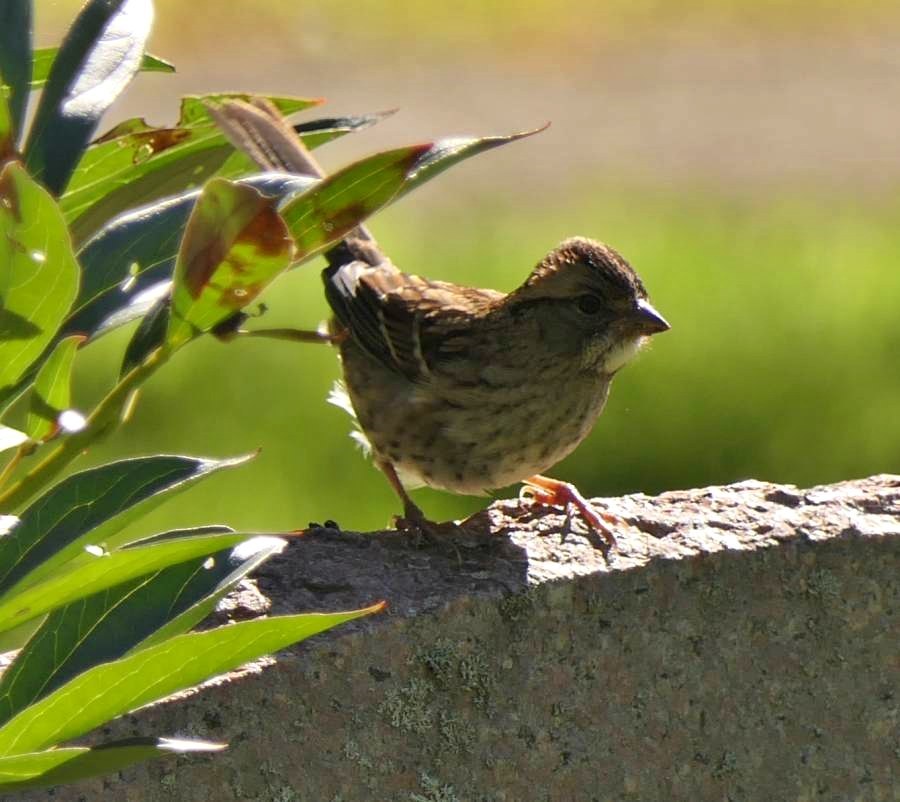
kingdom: Animalia
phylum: Chordata
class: Aves
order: Passeriformes
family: Passerellidae
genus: Zonotrichia
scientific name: Zonotrichia albicollis
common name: White-throated sparrow
